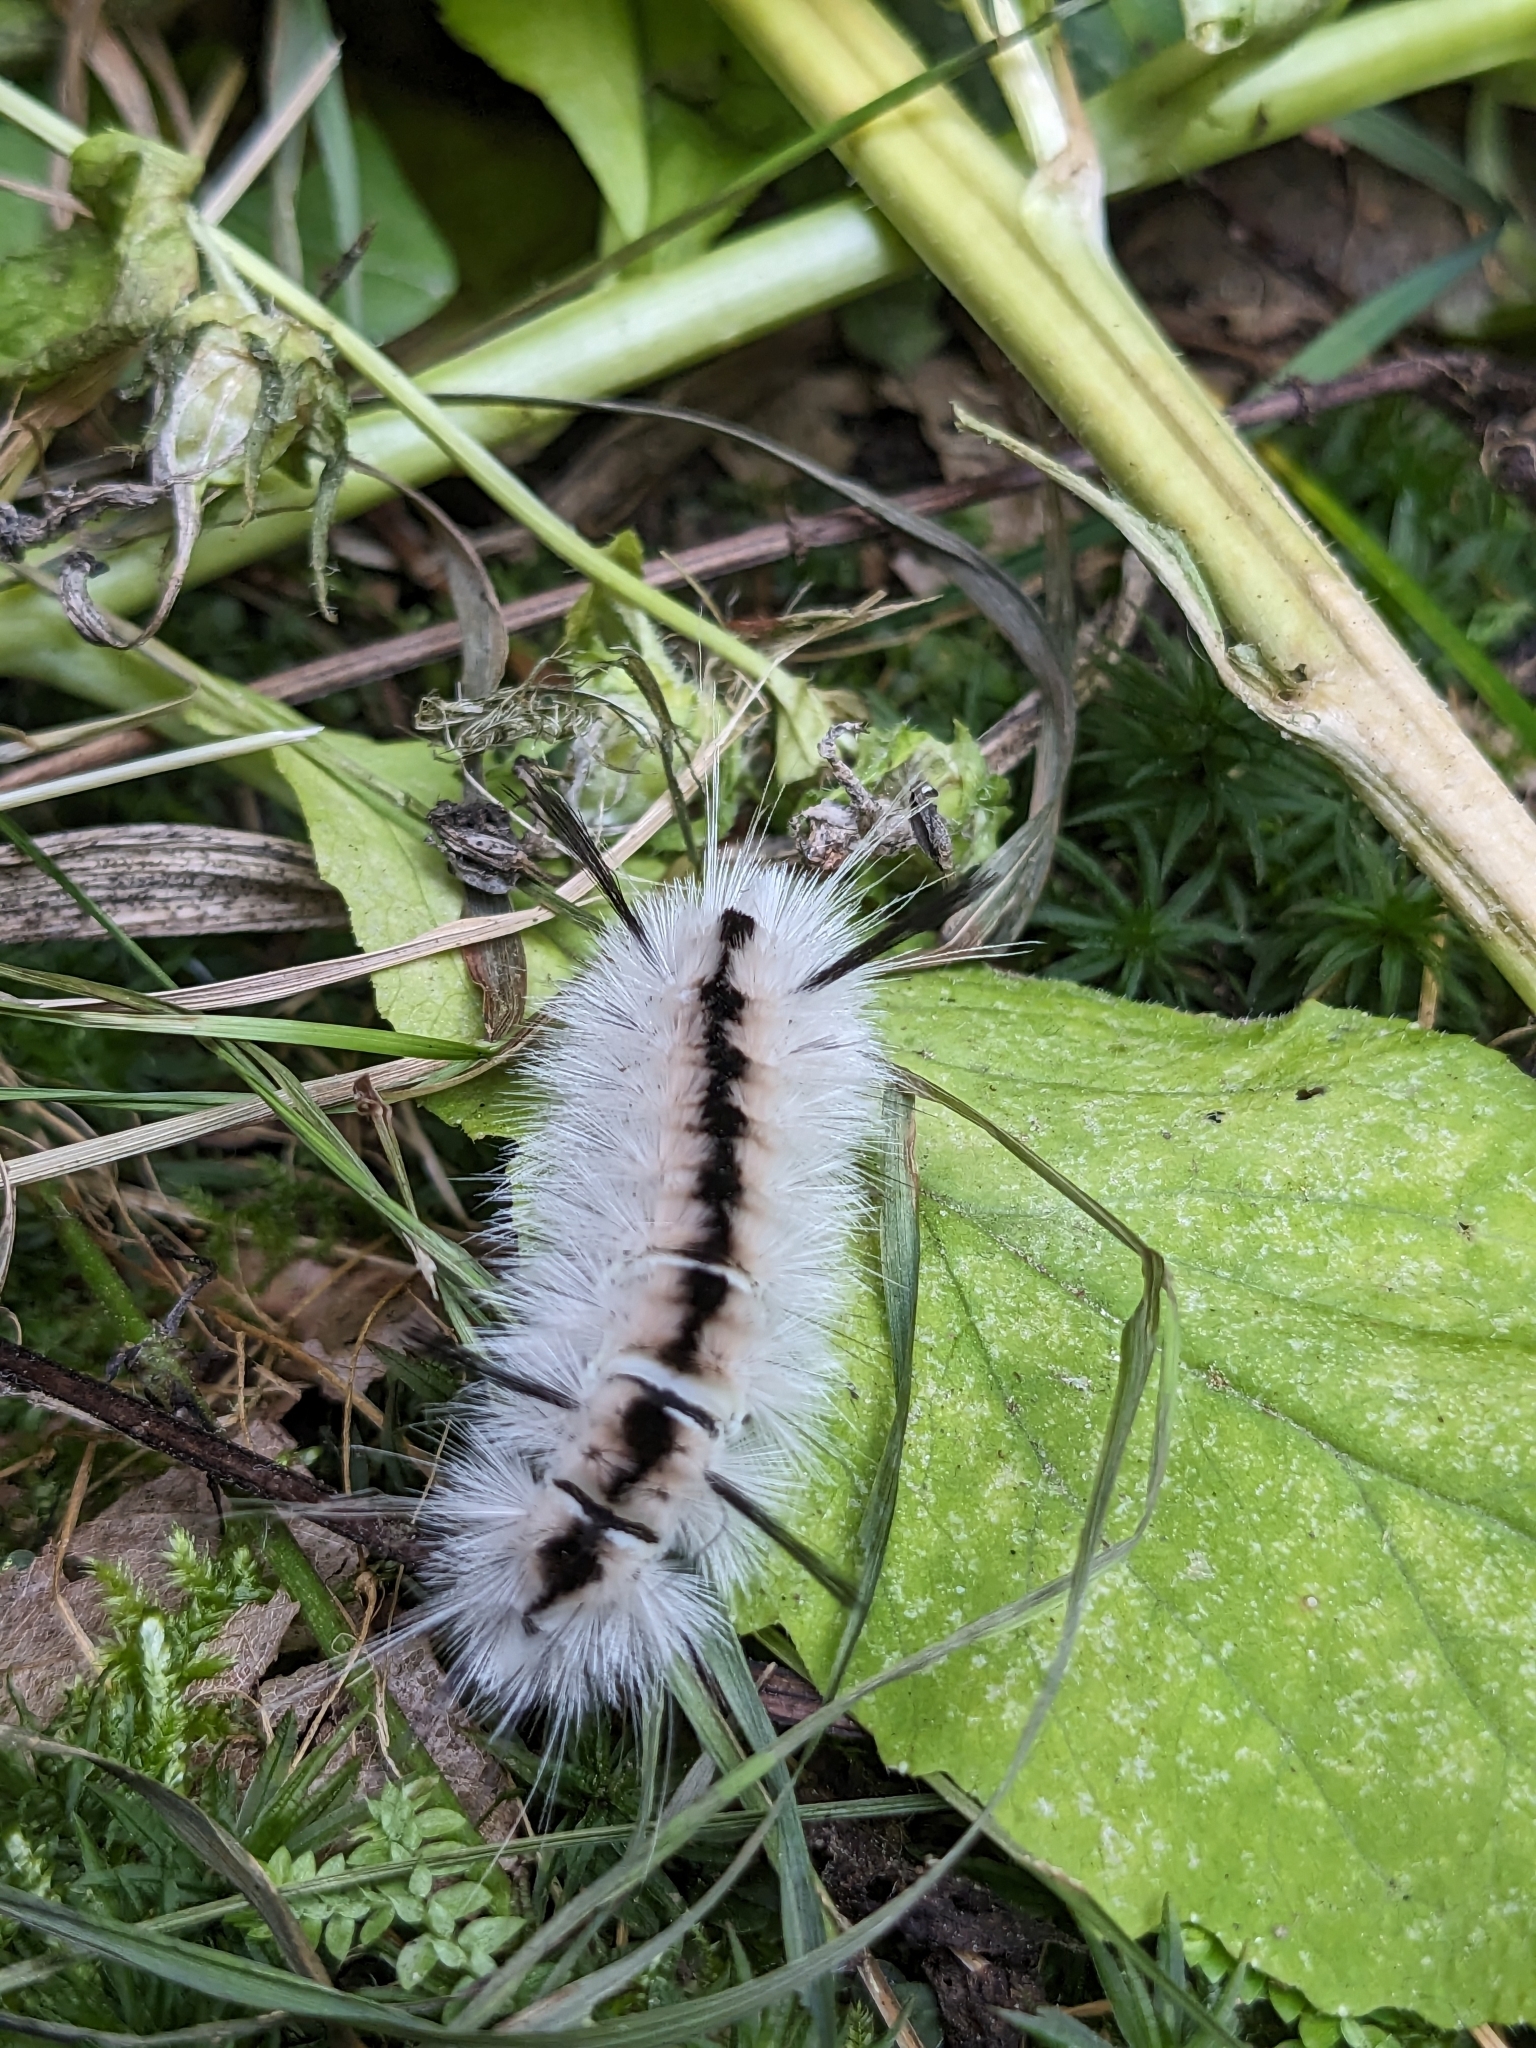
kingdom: Animalia
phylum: Arthropoda
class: Insecta
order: Lepidoptera
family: Erebidae
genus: Lophocampa
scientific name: Lophocampa caryae
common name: Hickory tussock moth
